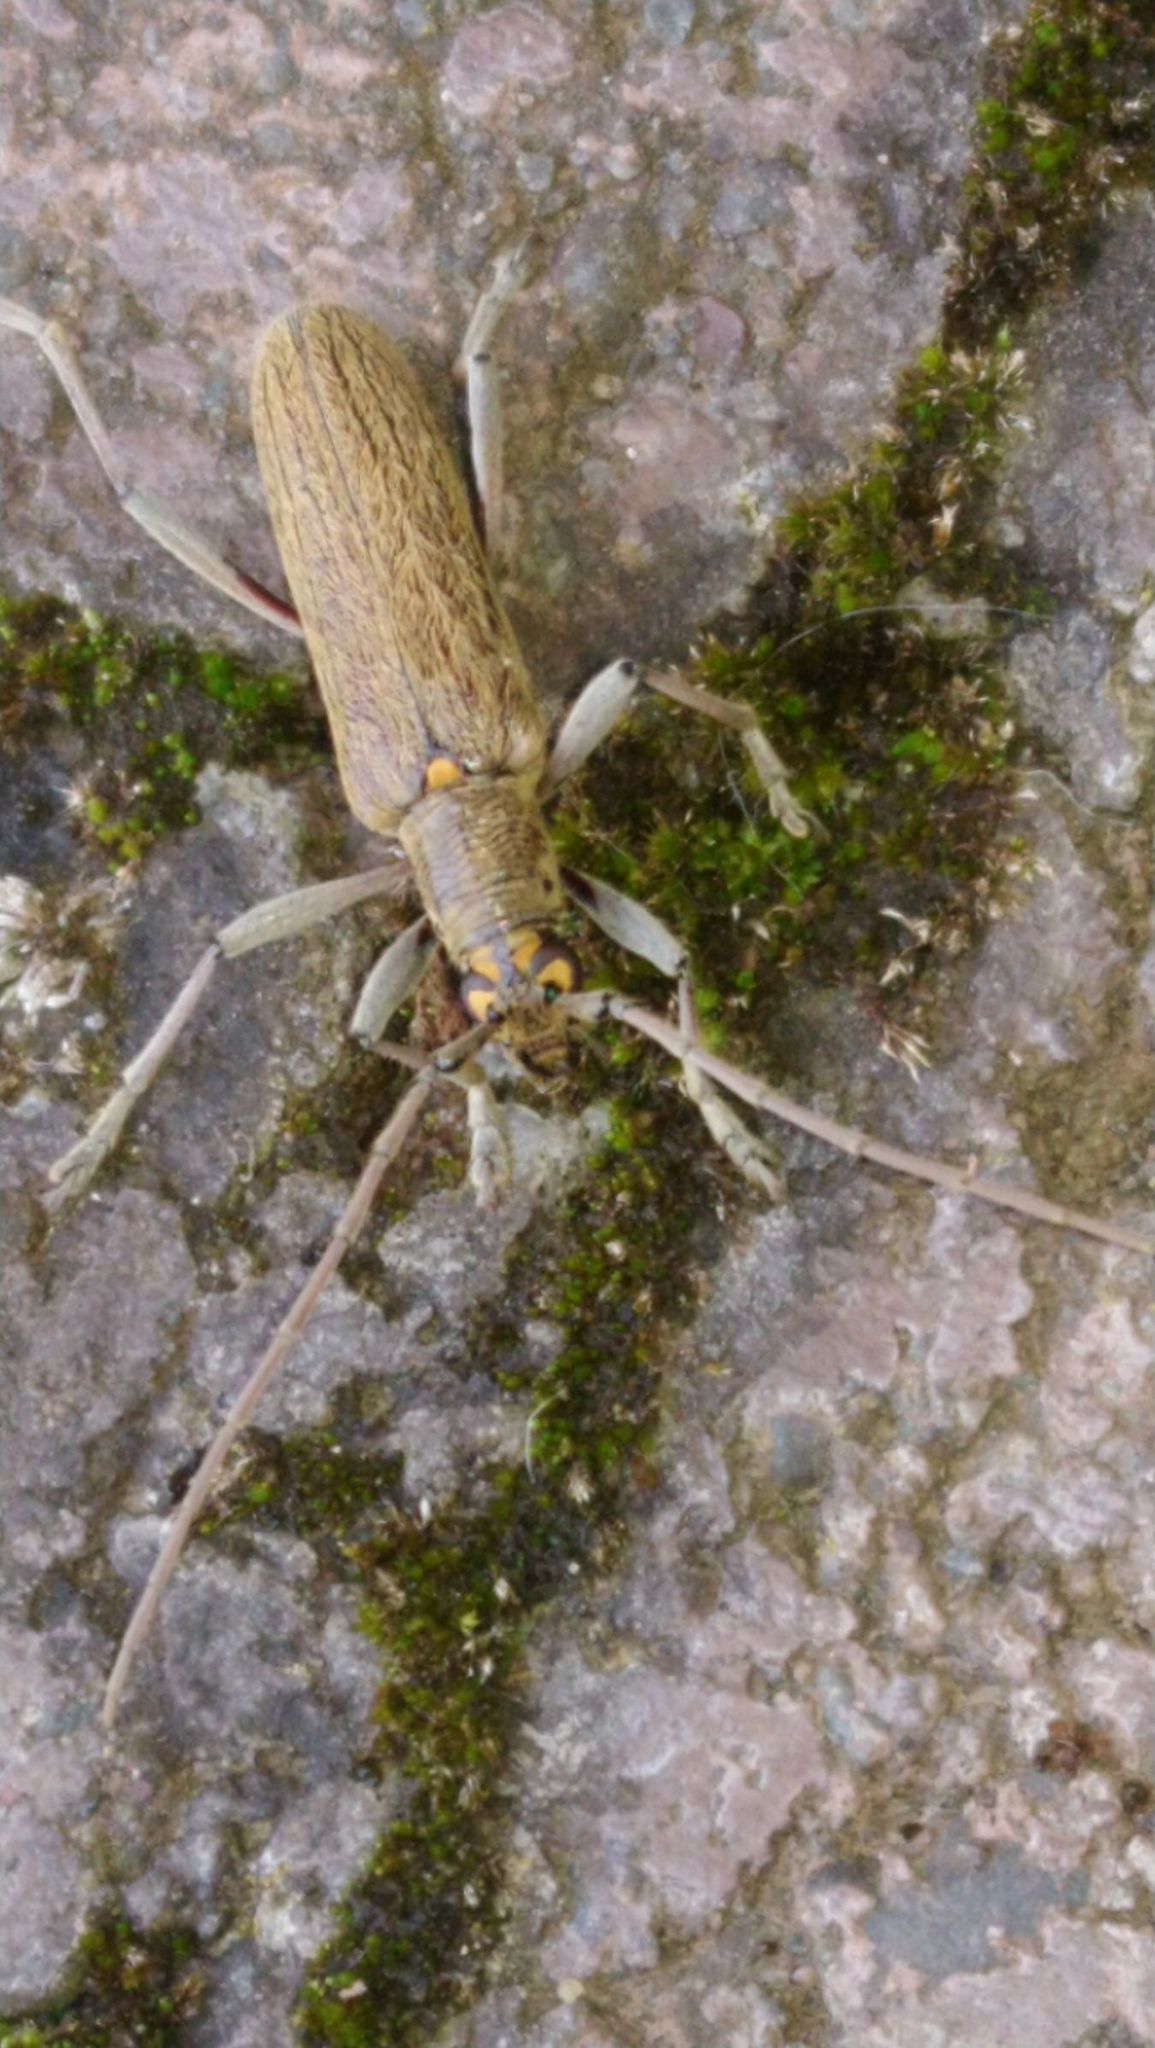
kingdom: Animalia
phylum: Arthropoda
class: Insecta
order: Coleoptera
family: Cerambycidae
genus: Oemona
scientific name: Oemona hirta
